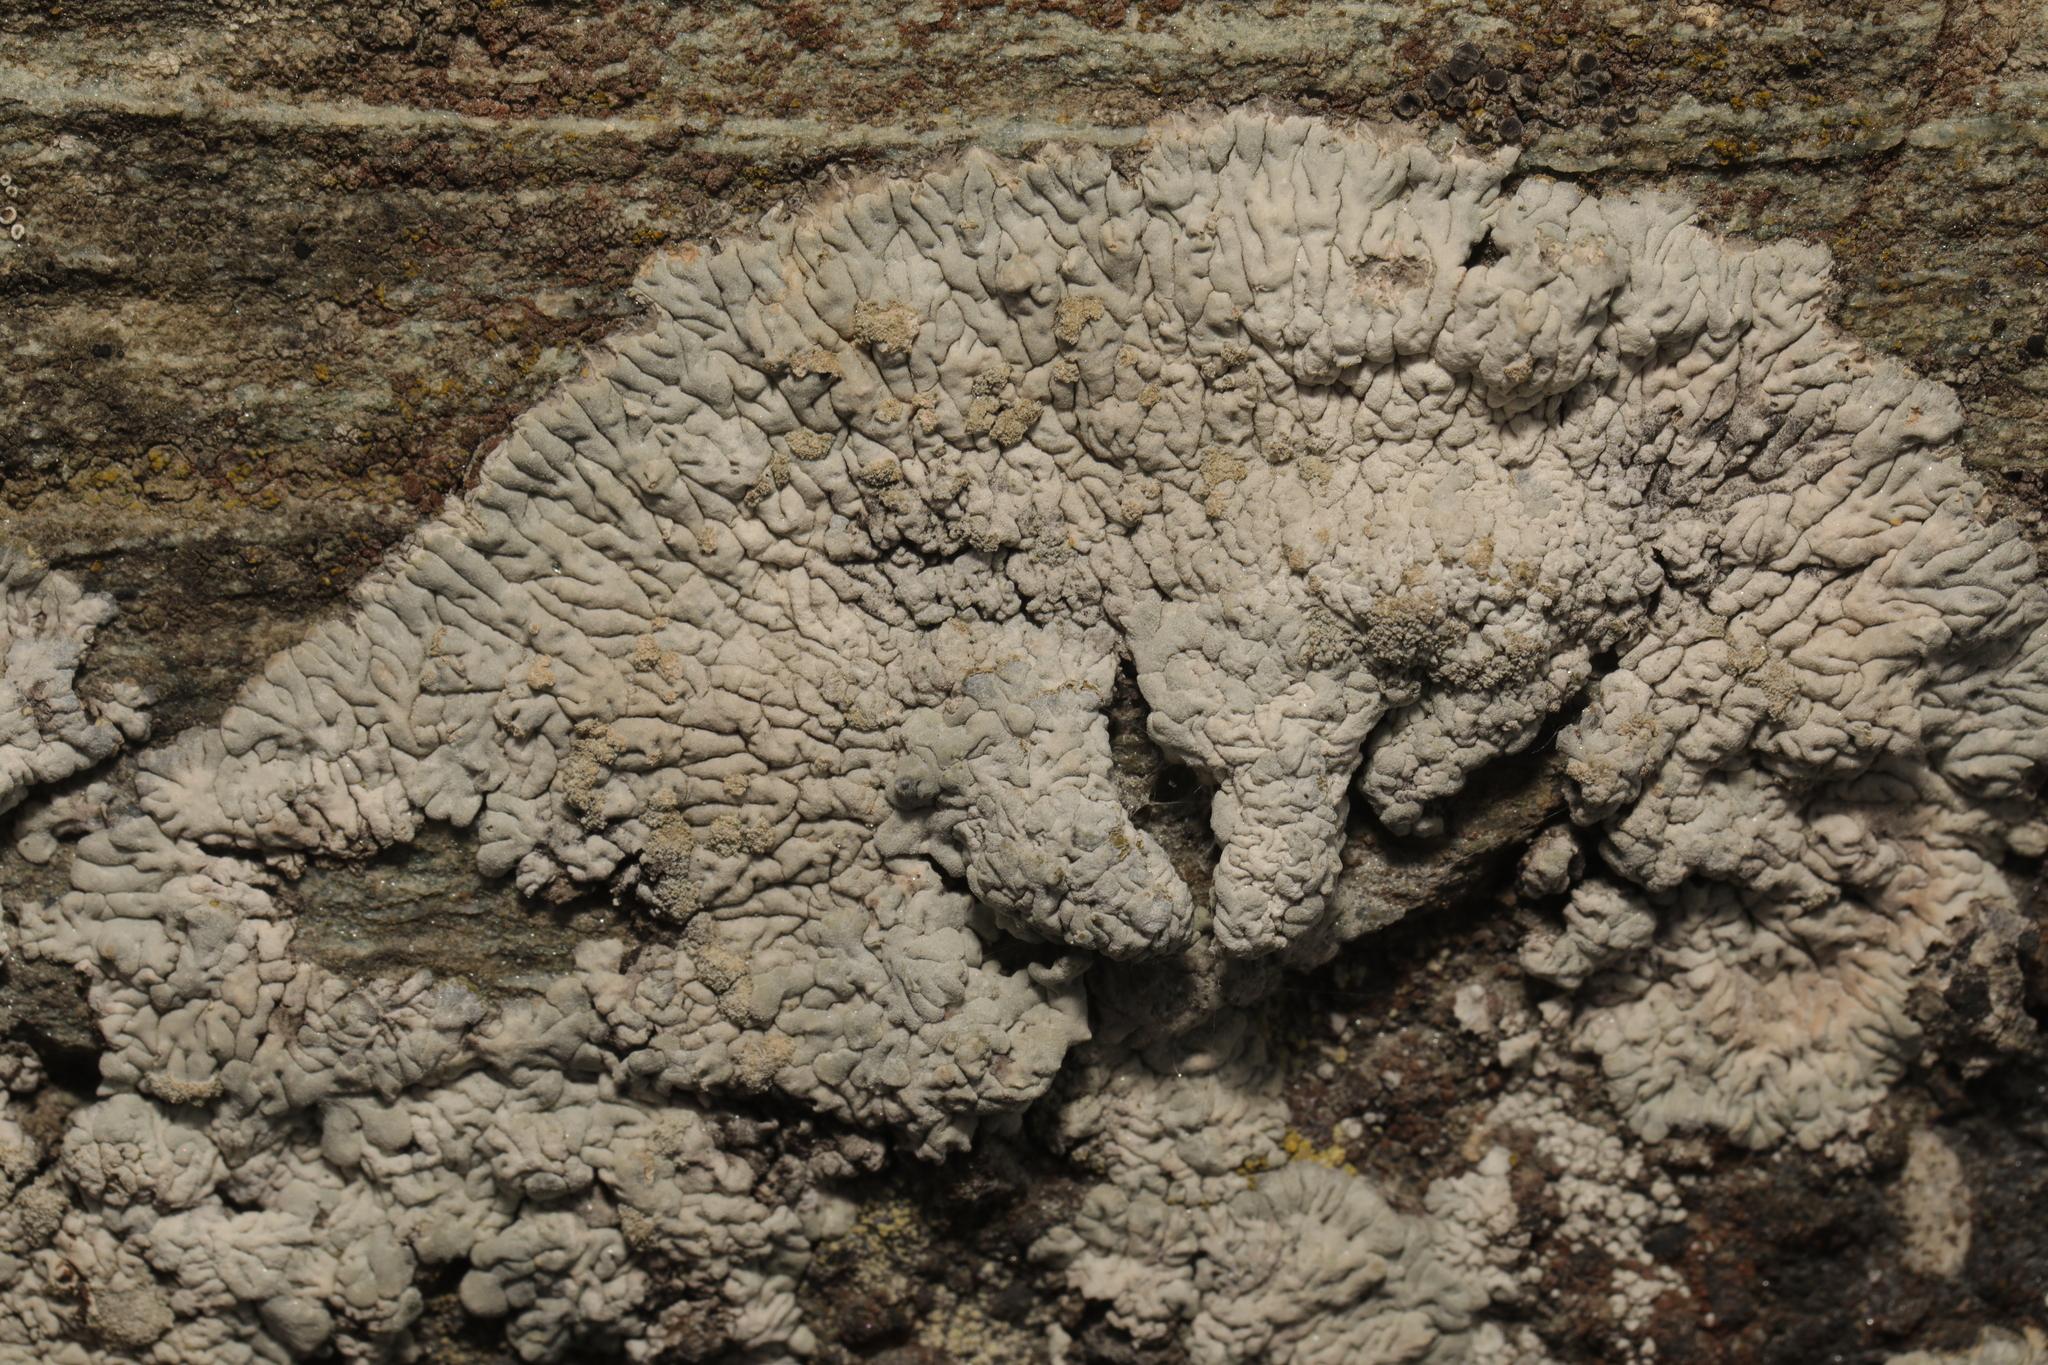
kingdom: Fungi
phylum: Ascomycota
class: Lecanoromycetes
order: Caliciales
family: Caliciaceae
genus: Diploicia
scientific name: Diploicia canescens
